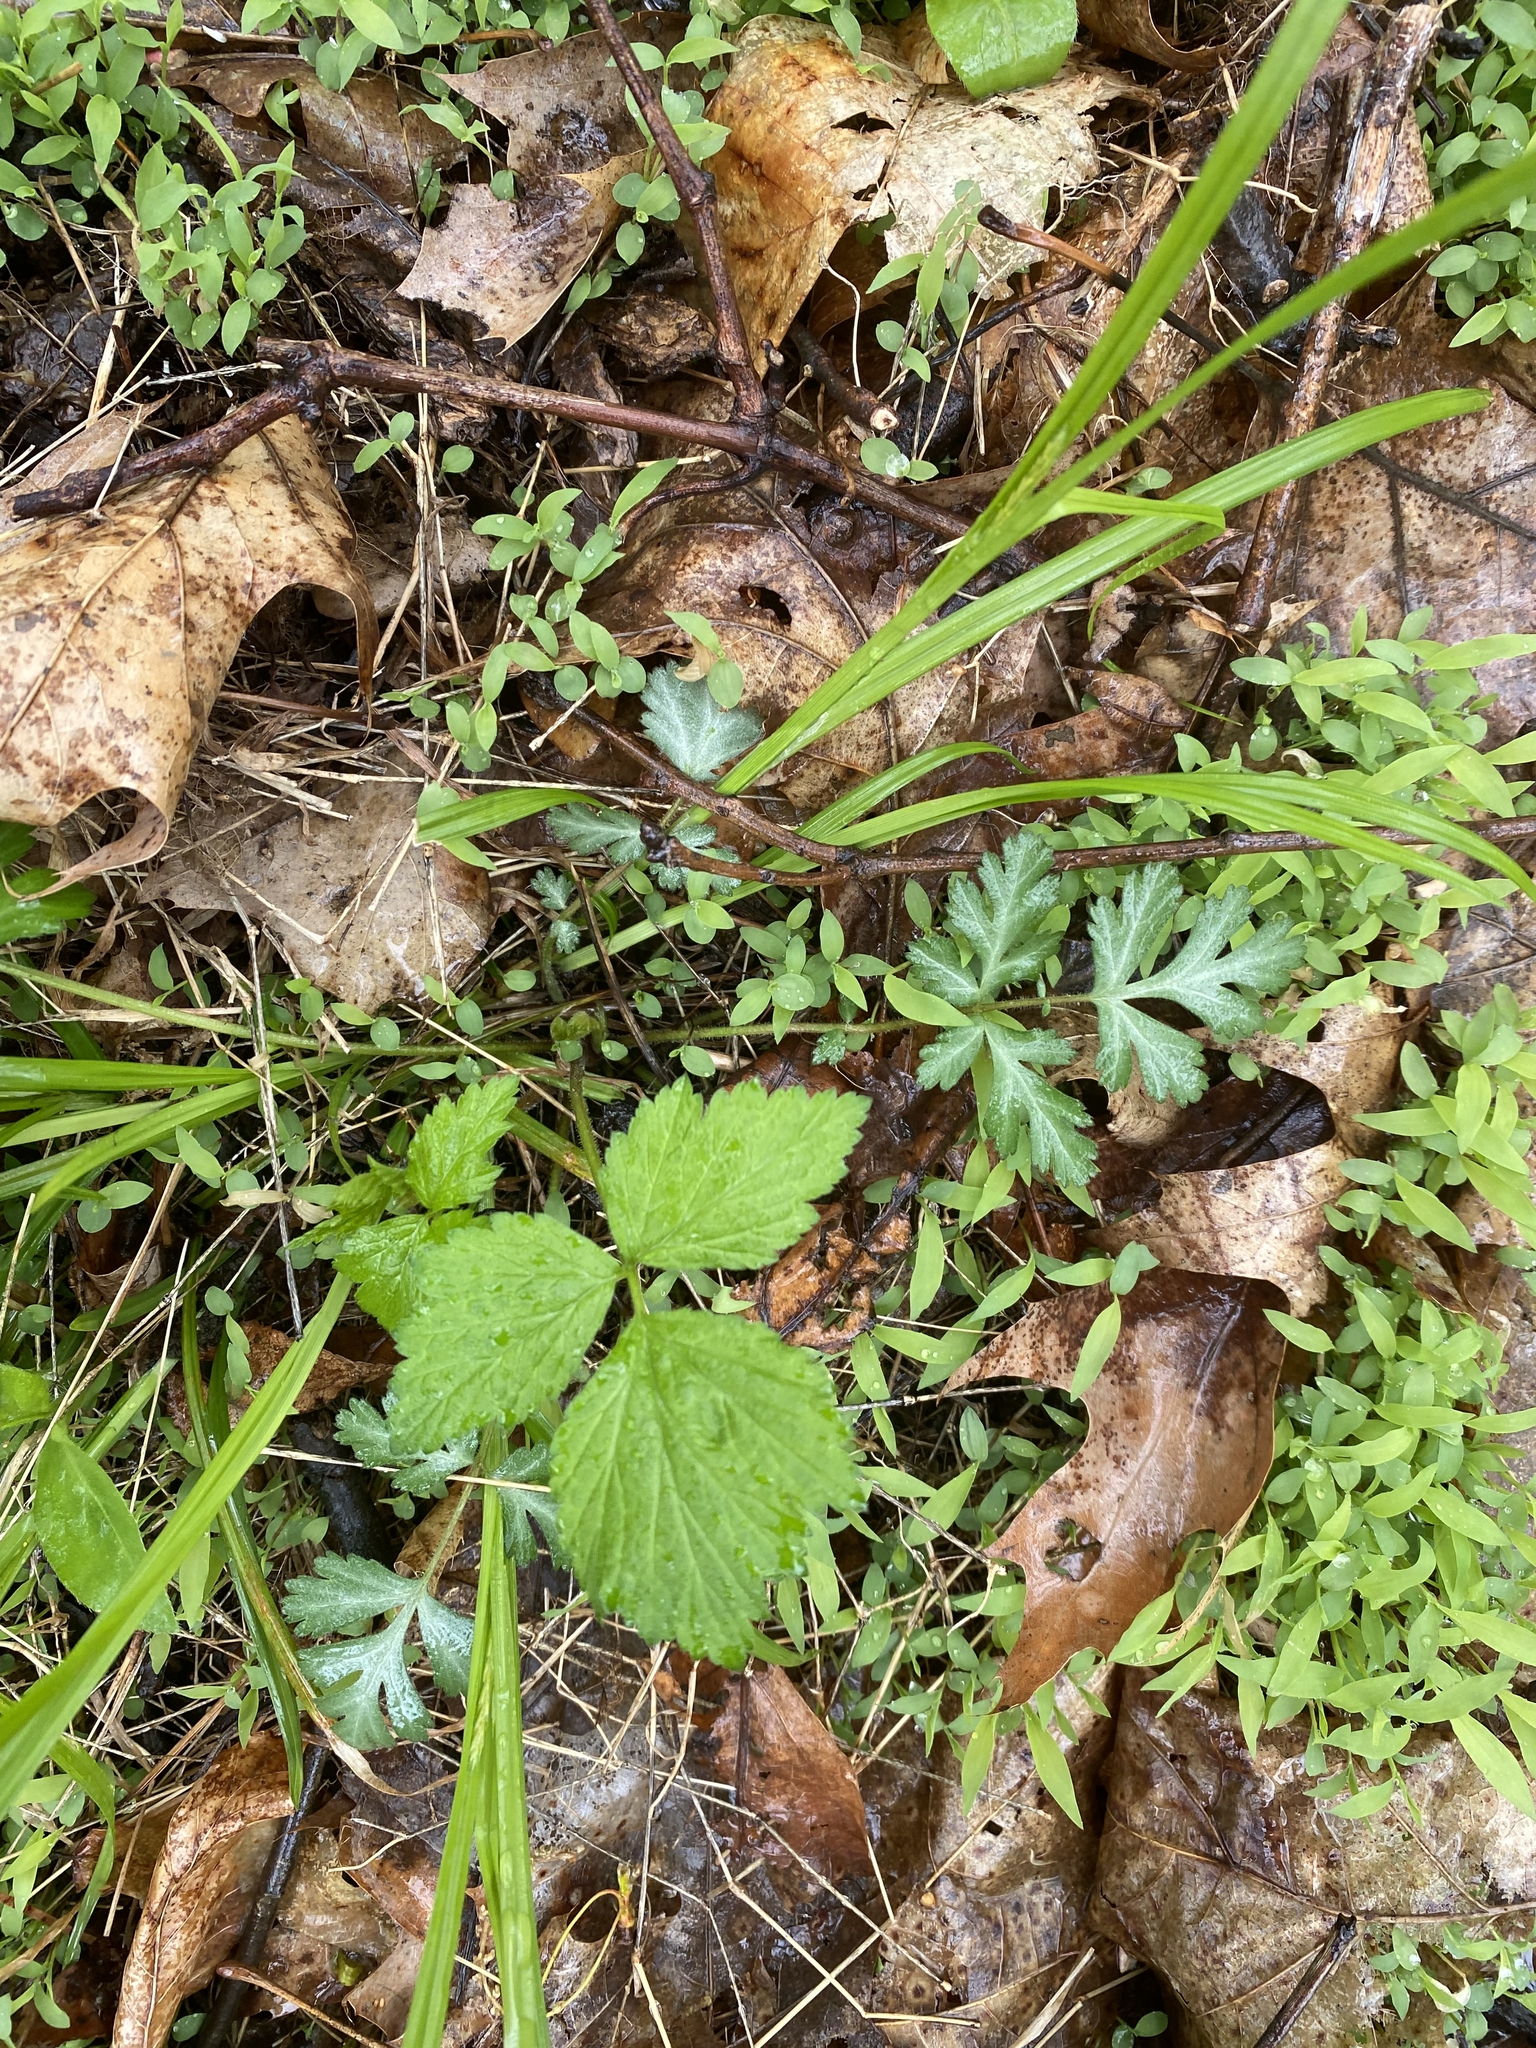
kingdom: Plantae
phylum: Tracheophyta
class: Magnoliopsida
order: Rosales
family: Rosaceae
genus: Geum
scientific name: Geum canadense
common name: White avens
